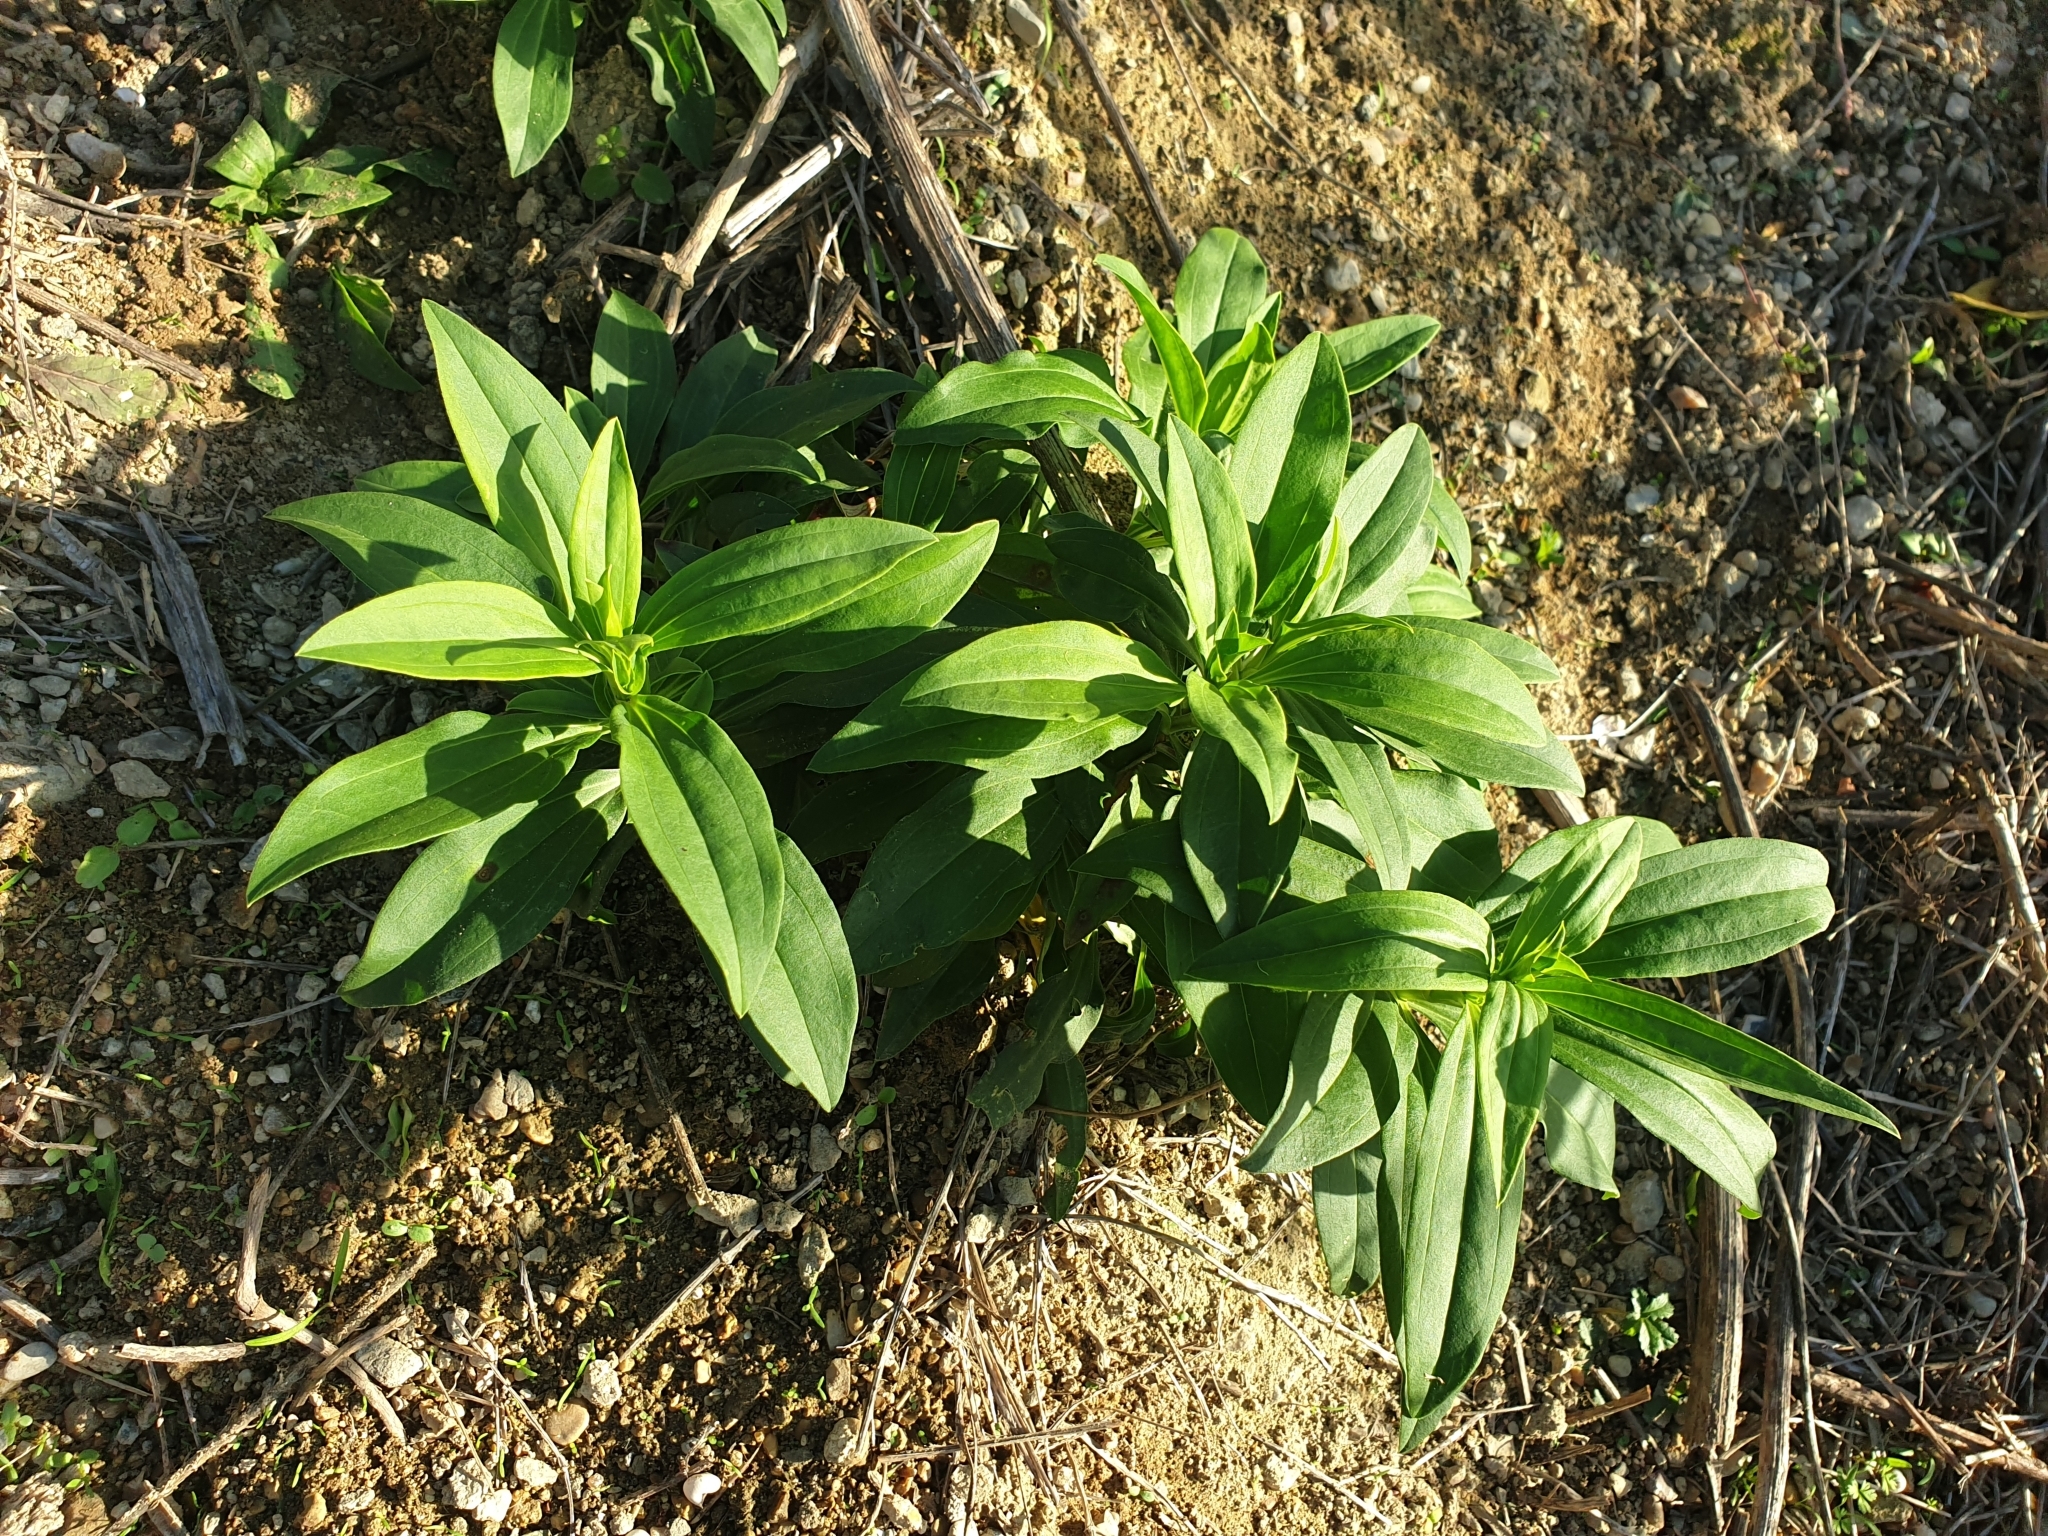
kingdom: Plantae
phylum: Tracheophyta
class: Magnoliopsida
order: Caryophyllales
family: Caryophyllaceae
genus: Saponaria
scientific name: Saponaria officinalis
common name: Soapwort
